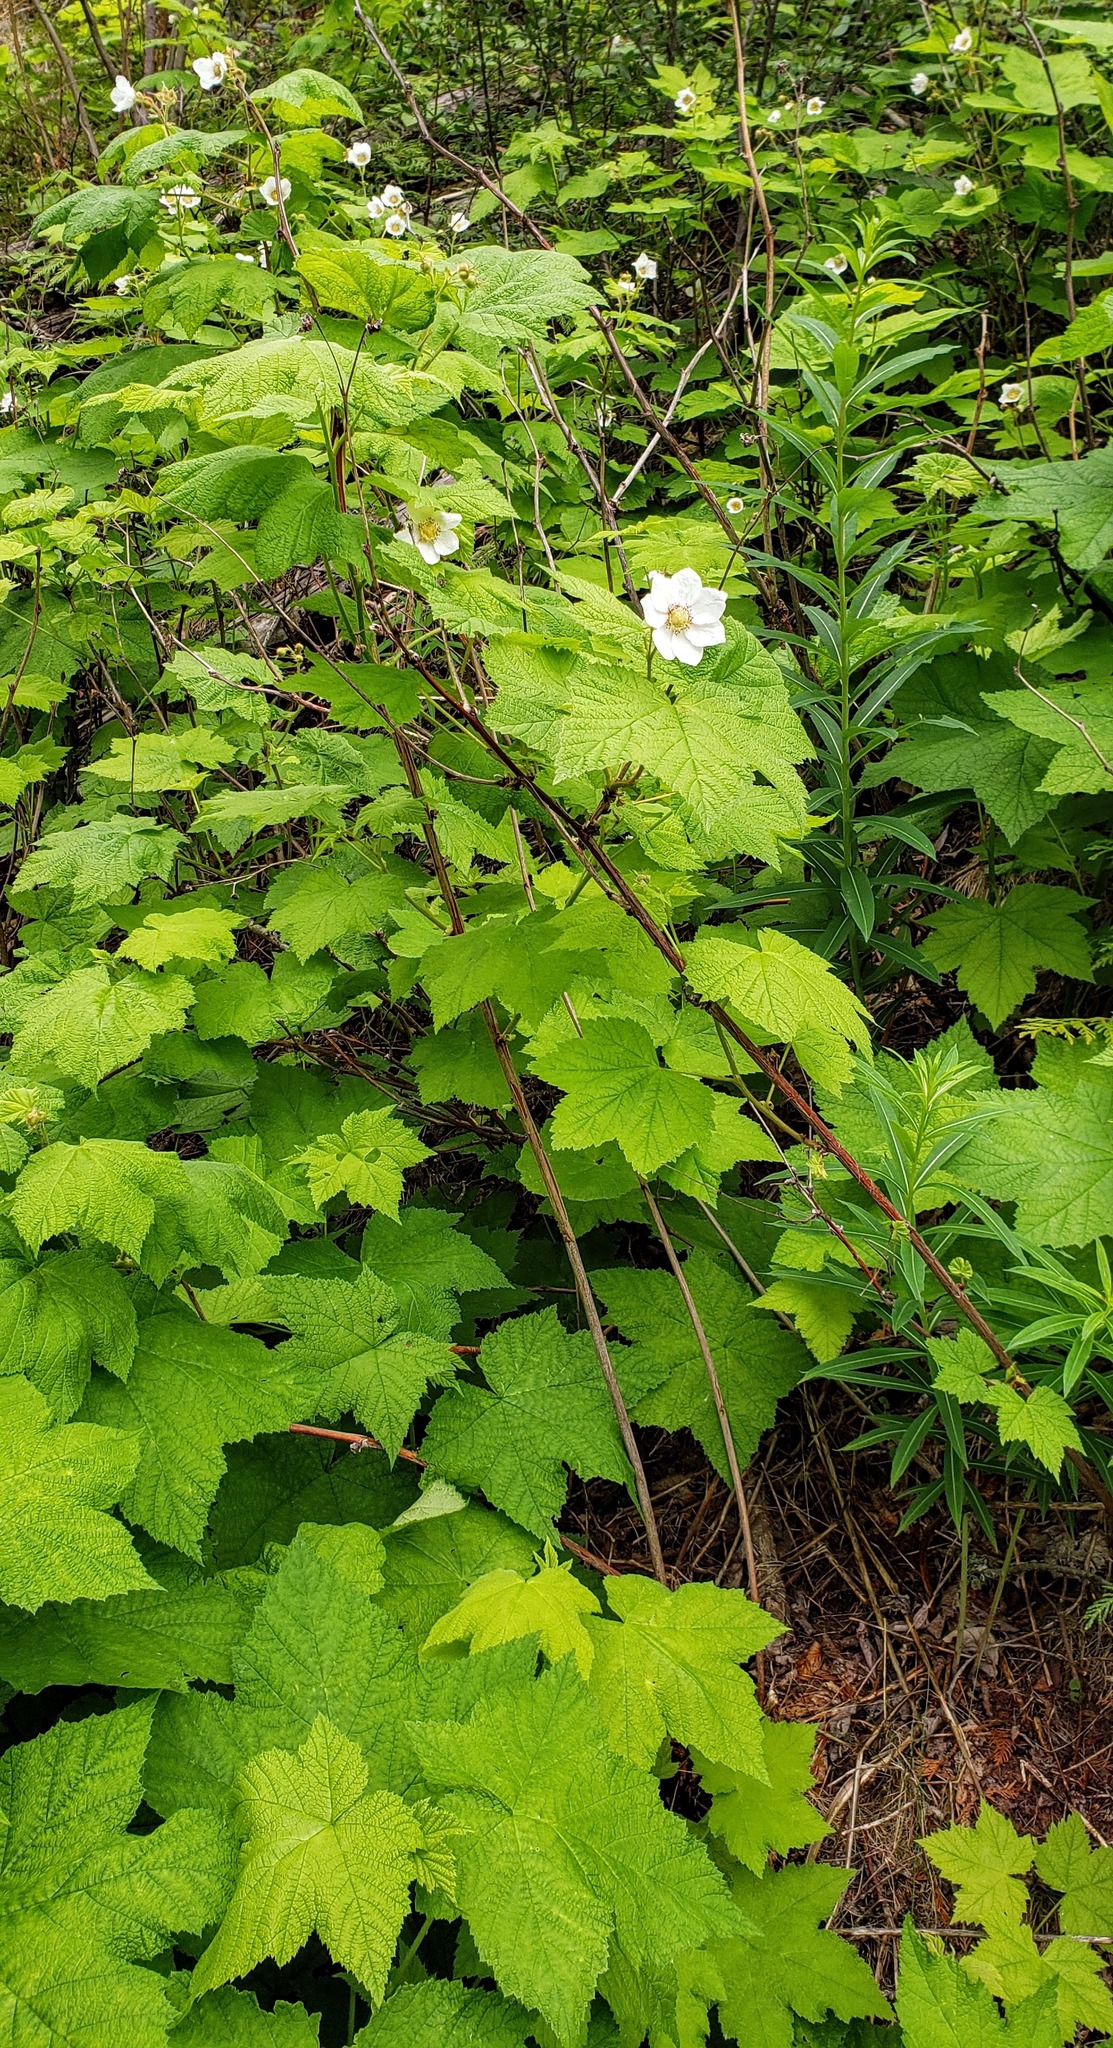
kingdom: Plantae
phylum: Tracheophyta
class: Magnoliopsida
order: Rosales
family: Rosaceae
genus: Rubus
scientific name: Rubus parviflorus
